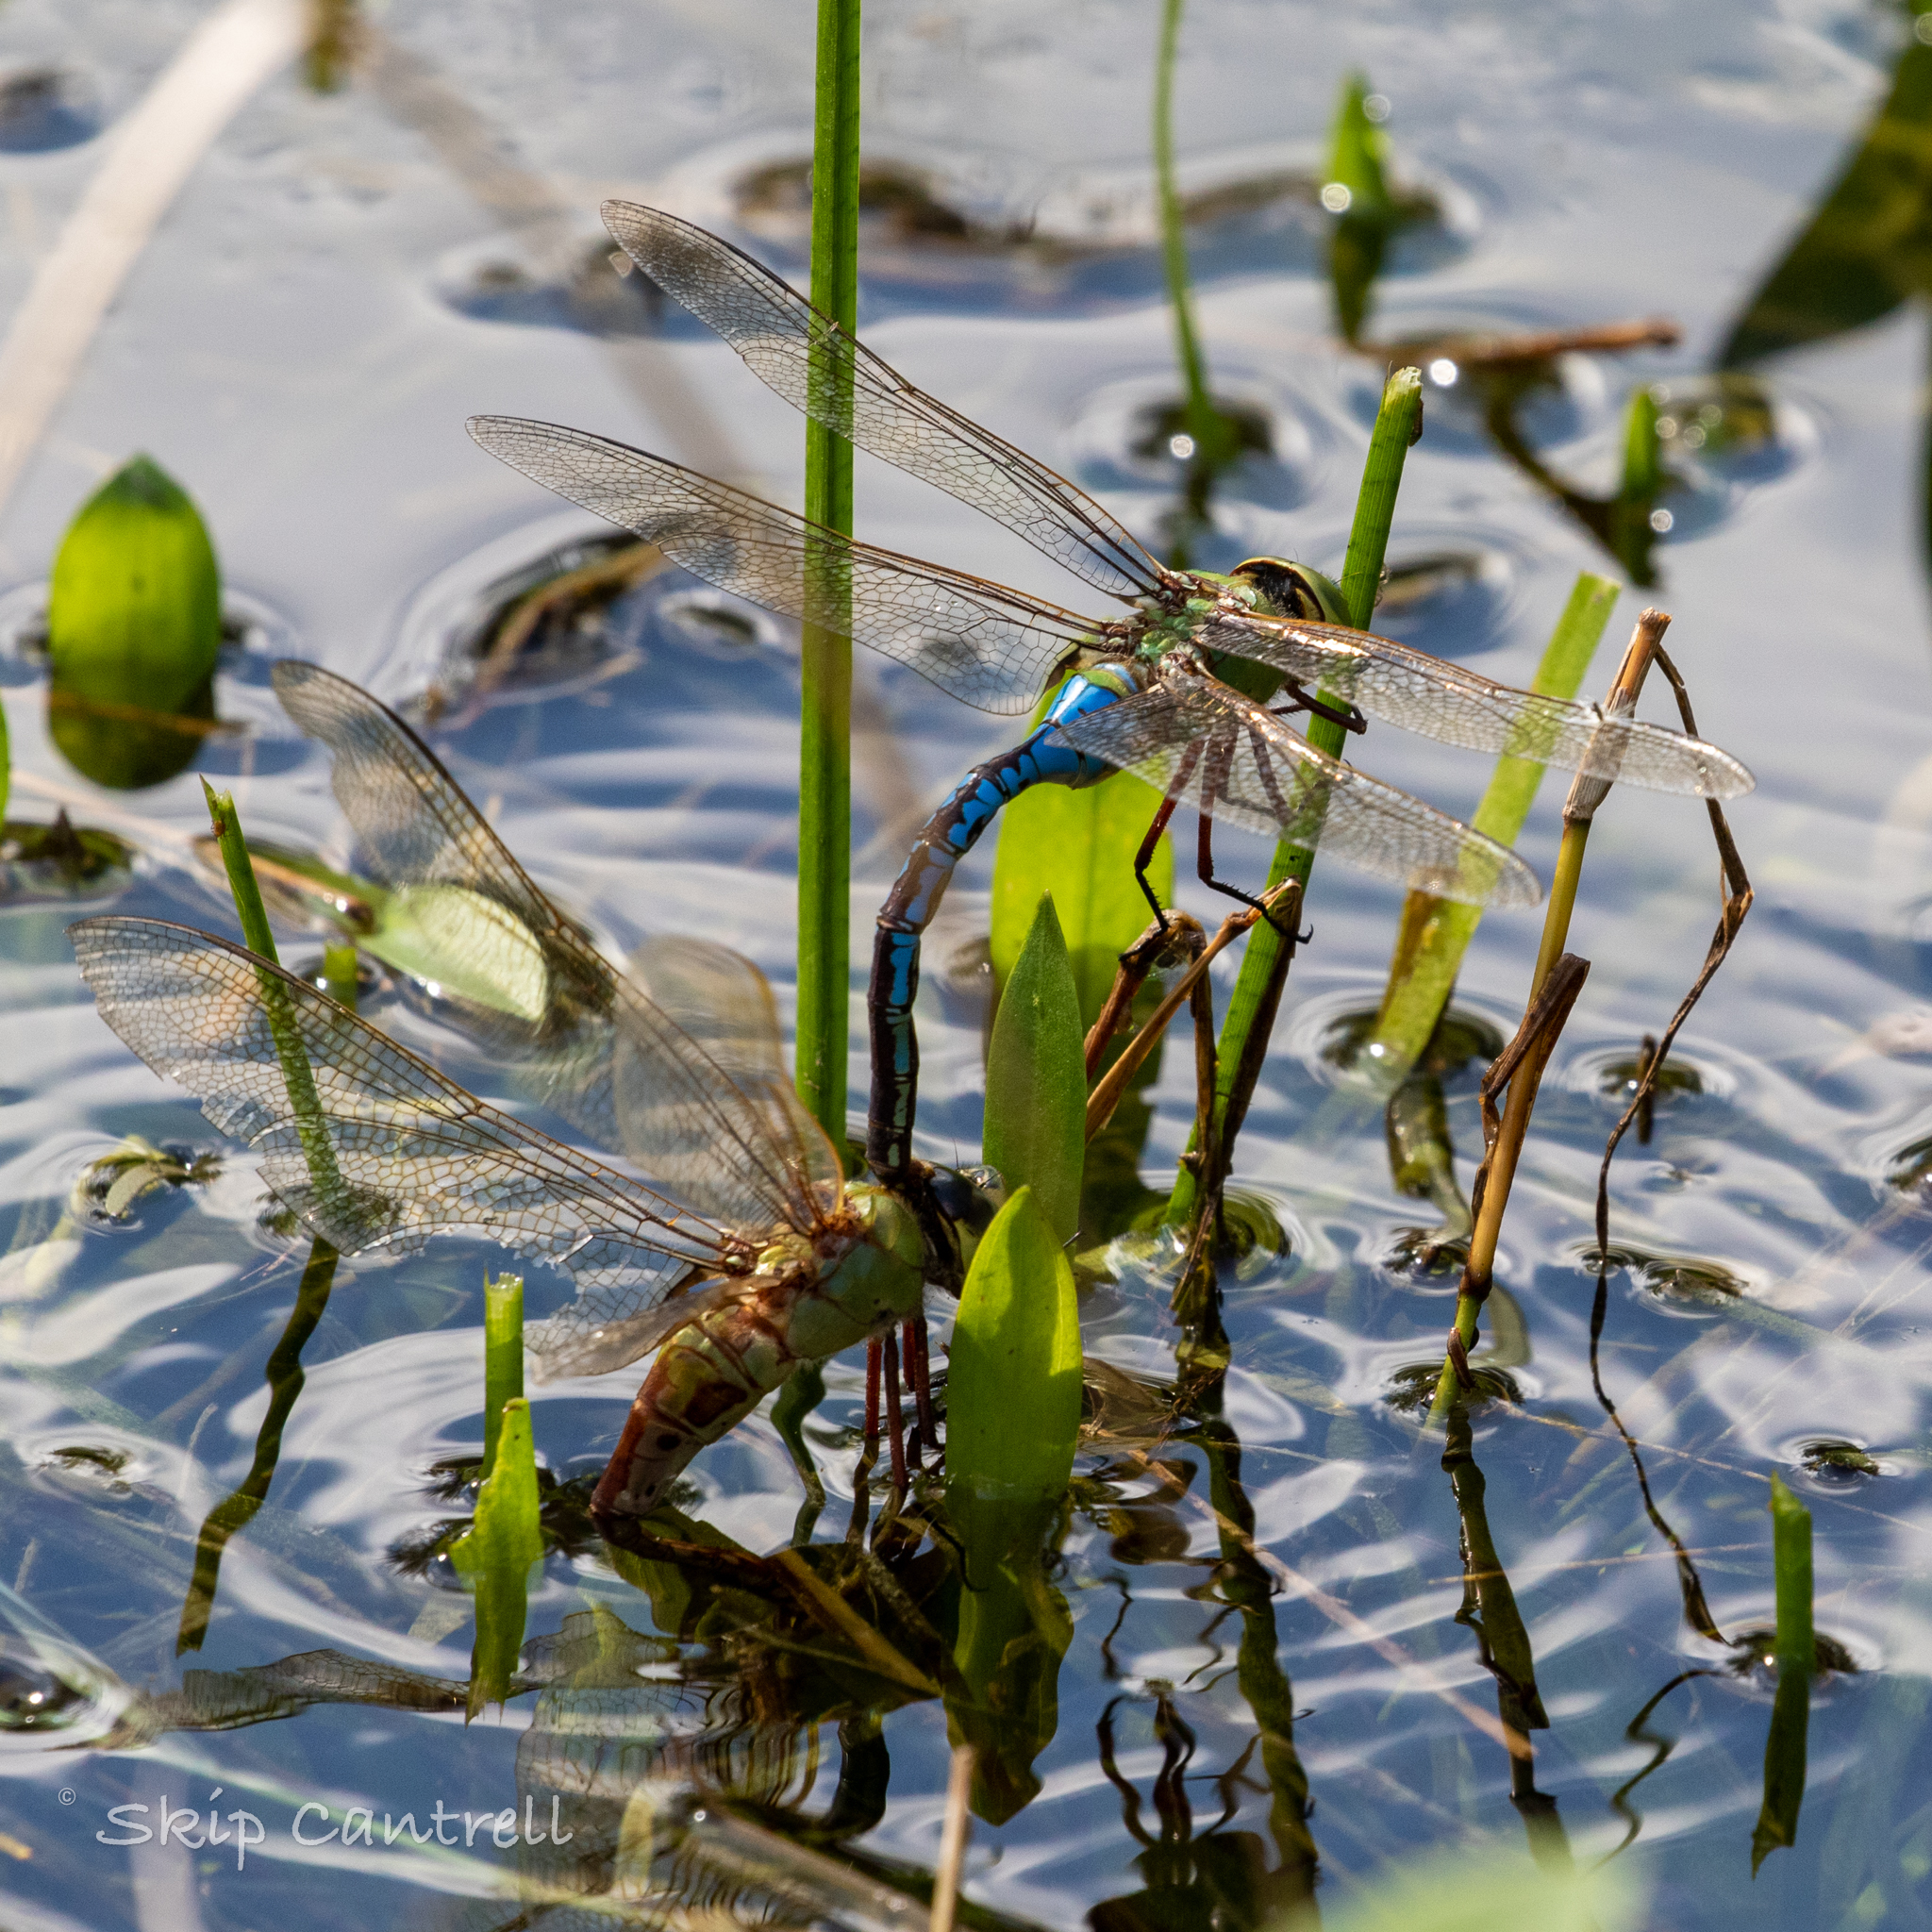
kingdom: Animalia
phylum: Arthropoda
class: Insecta
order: Odonata
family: Aeshnidae
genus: Anax
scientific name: Anax junius
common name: Common green darner
